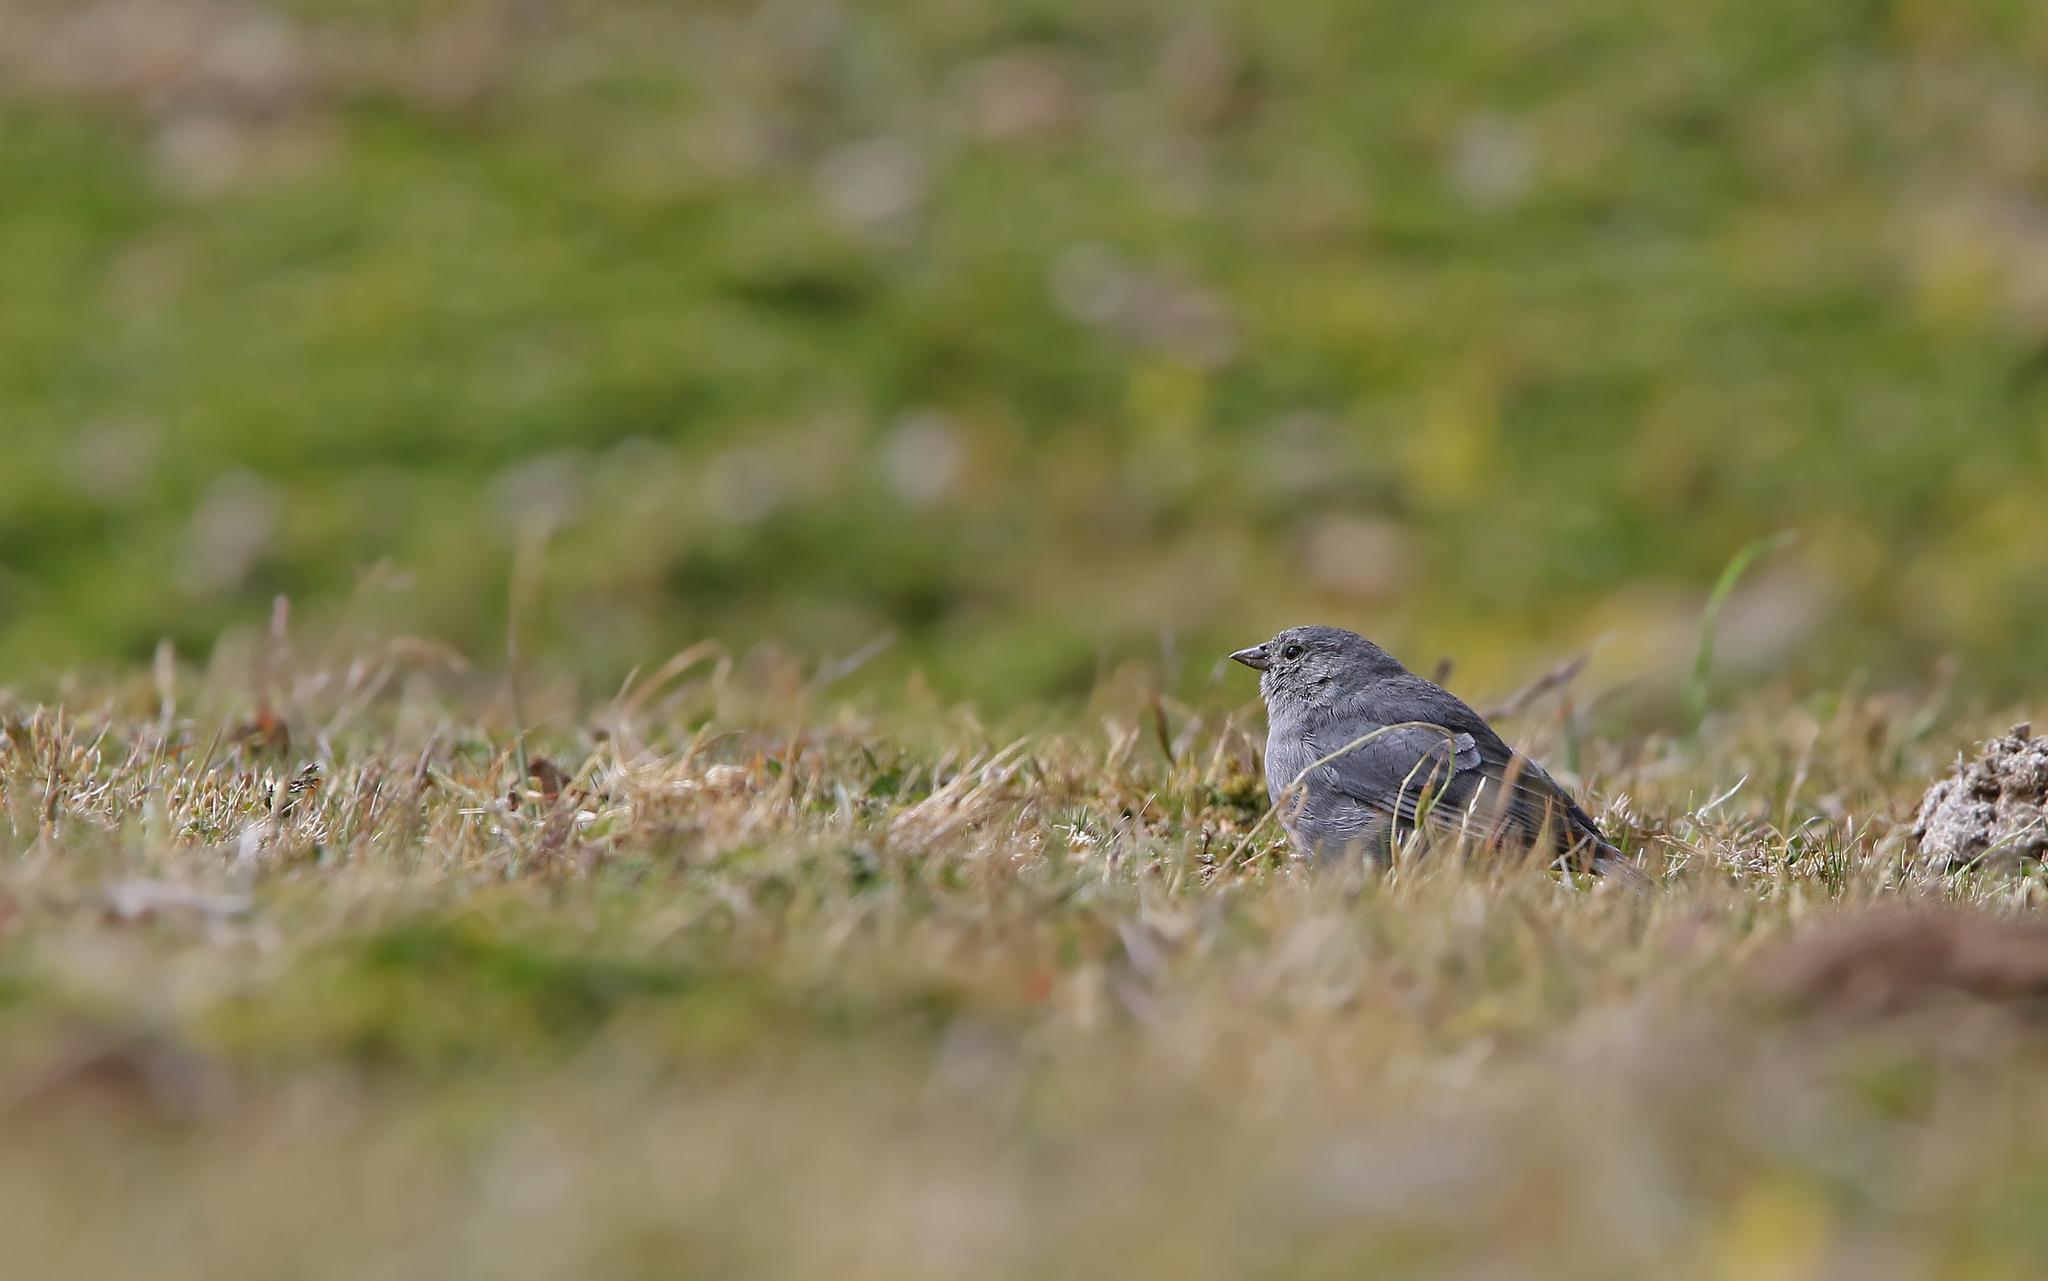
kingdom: Animalia
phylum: Chordata
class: Aves
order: Passeriformes
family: Thraupidae
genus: Geospizopsis
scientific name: Geospizopsis unicolor
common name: Plumbeous sierra-finch
